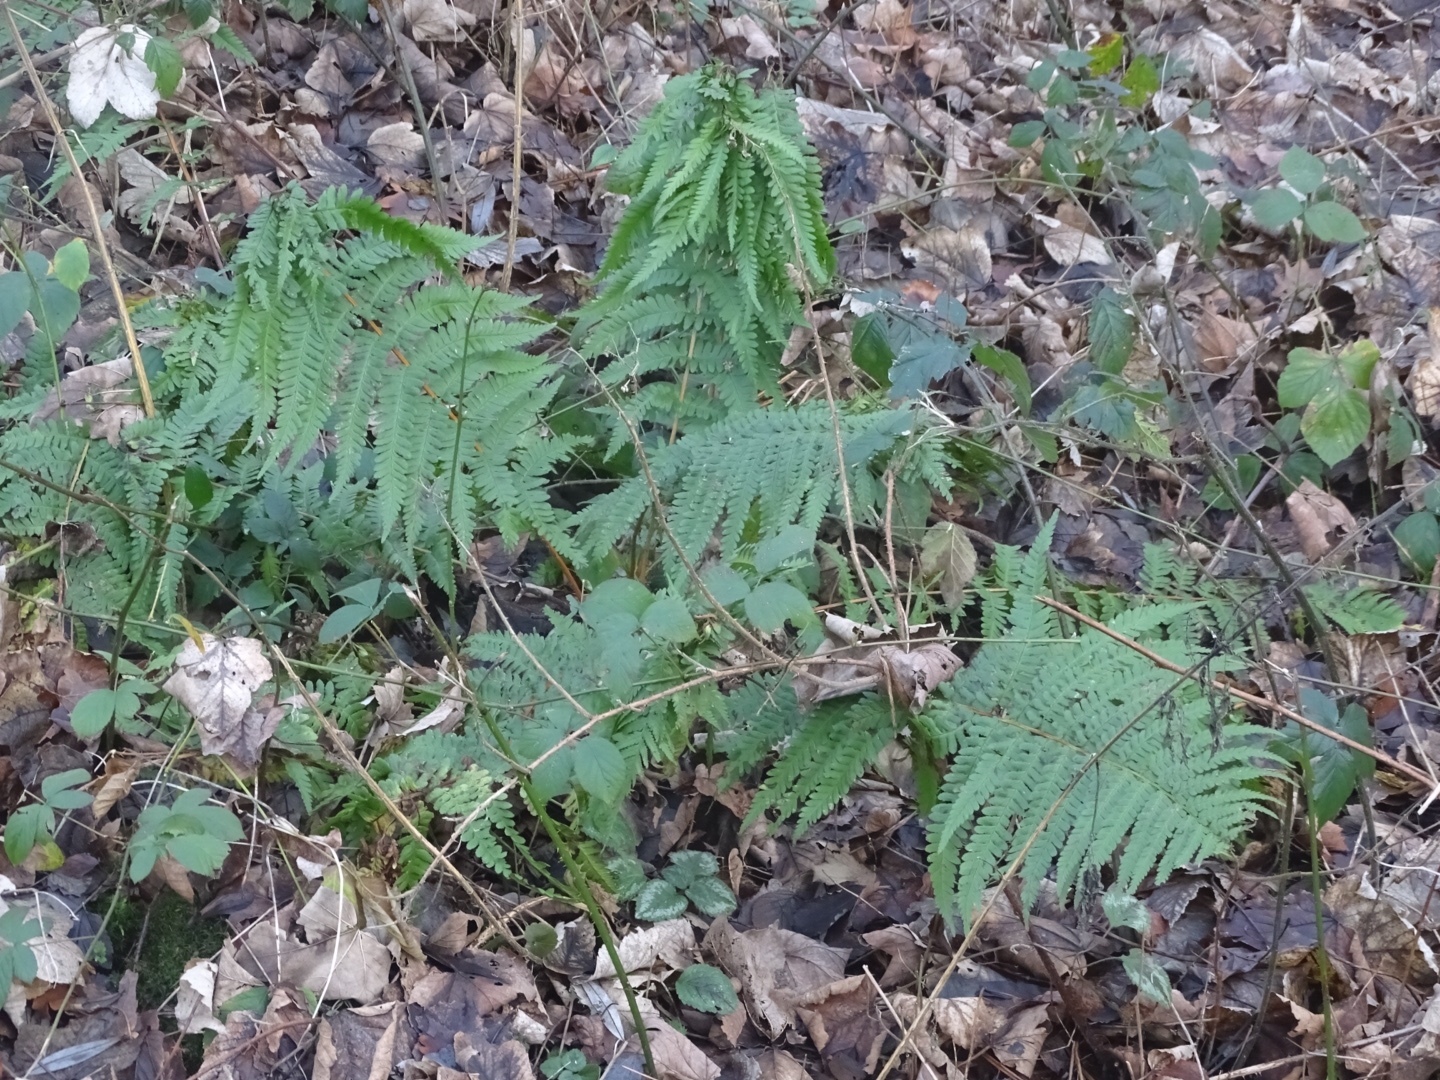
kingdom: Plantae
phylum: Tracheophyta
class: Polypodiopsida
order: Polypodiales
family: Dryopteridaceae
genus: Dryopteris
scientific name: Dryopteris filix-mas
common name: Male fern
